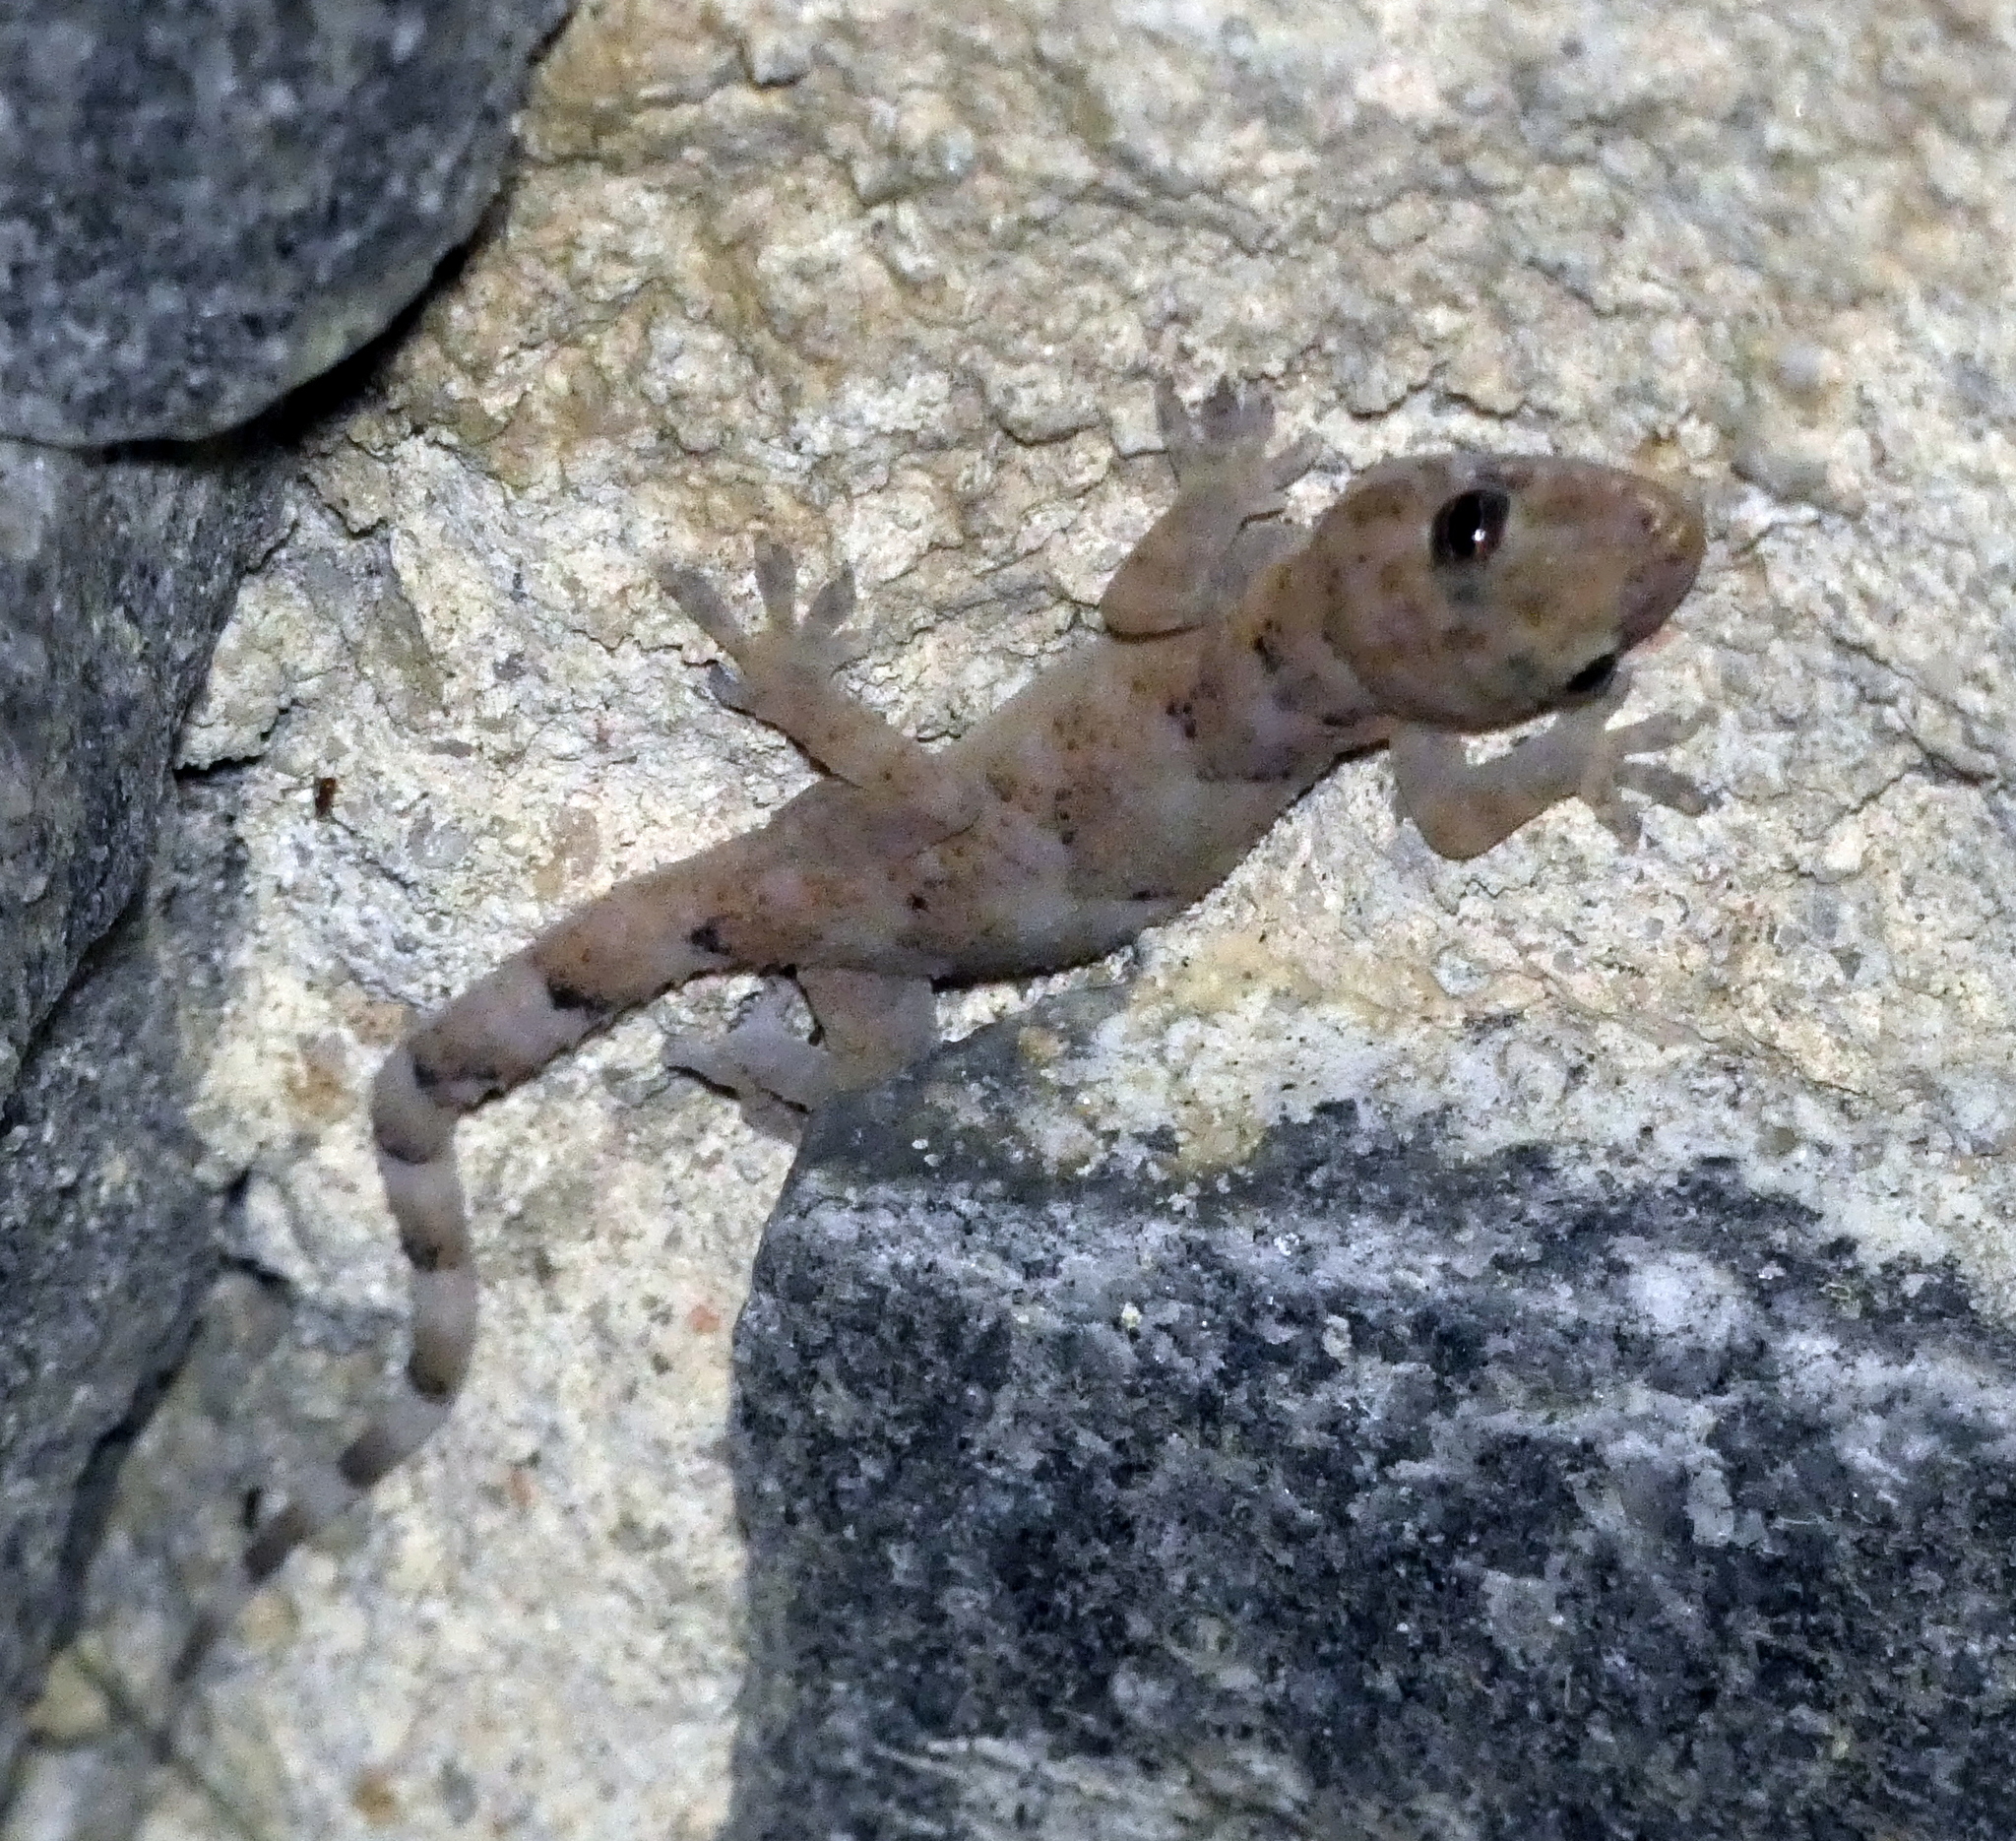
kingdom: Animalia
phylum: Chordata
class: Squamata
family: Gekkonidae
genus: Hemidactylus
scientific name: Hemidactylus mabouia
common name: House gecko
